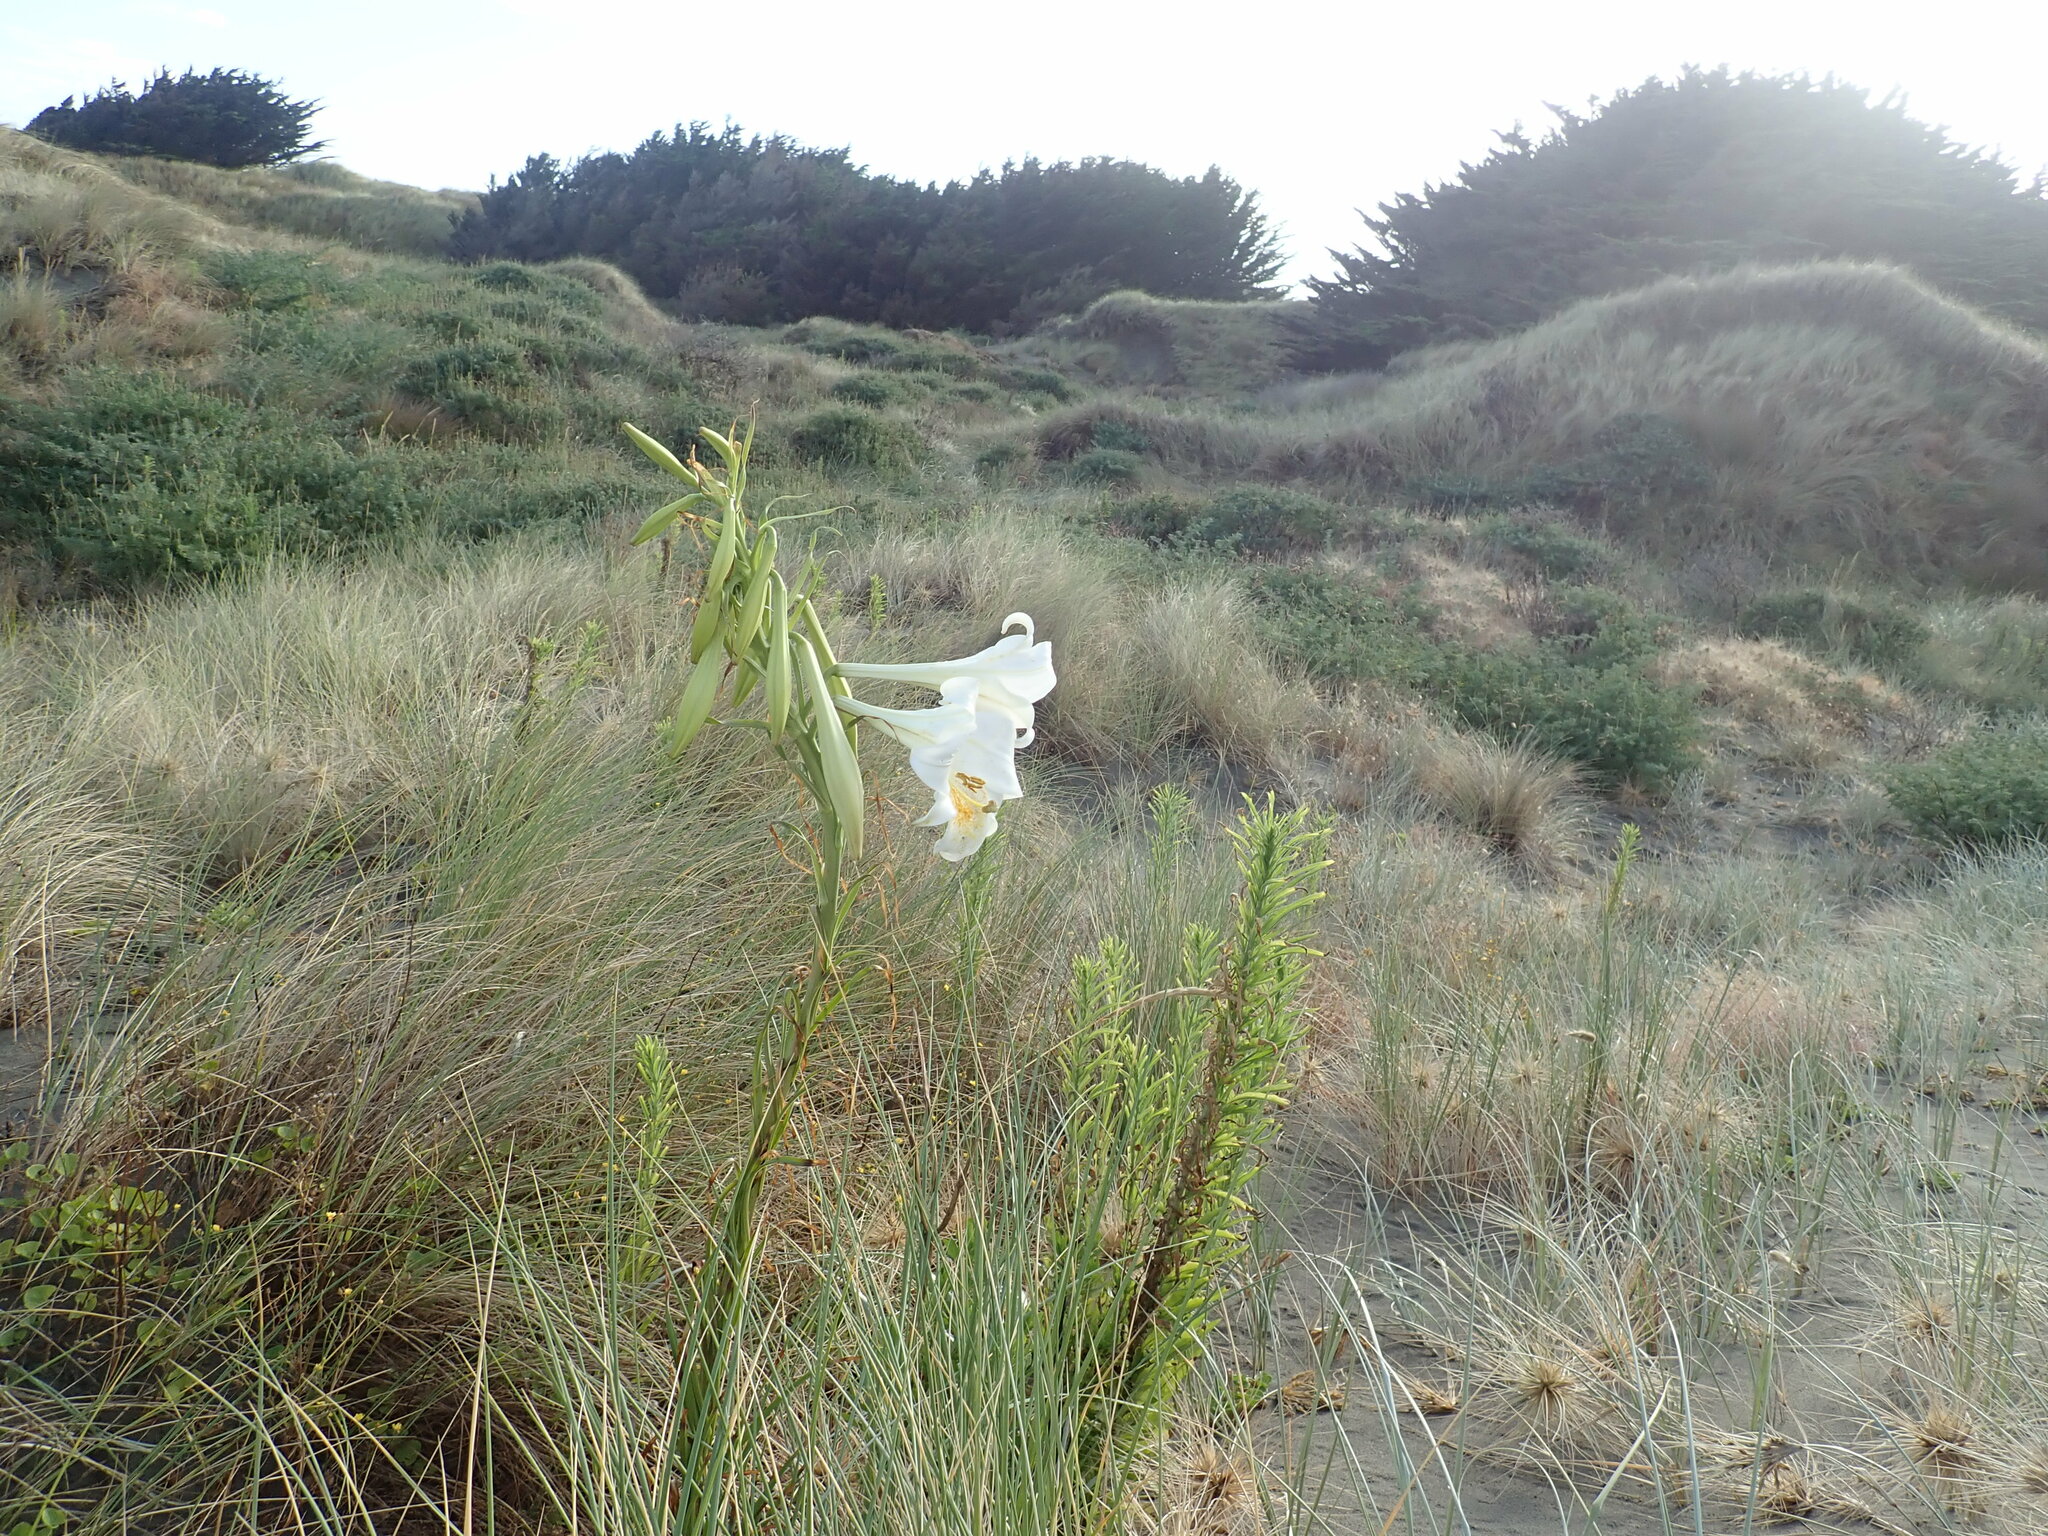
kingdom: Plantae
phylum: Tracheophyta
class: Liliopsida
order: Liliales
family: Liliaceae
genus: Lilium
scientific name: Lilium formosanum
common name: Formosa lily
